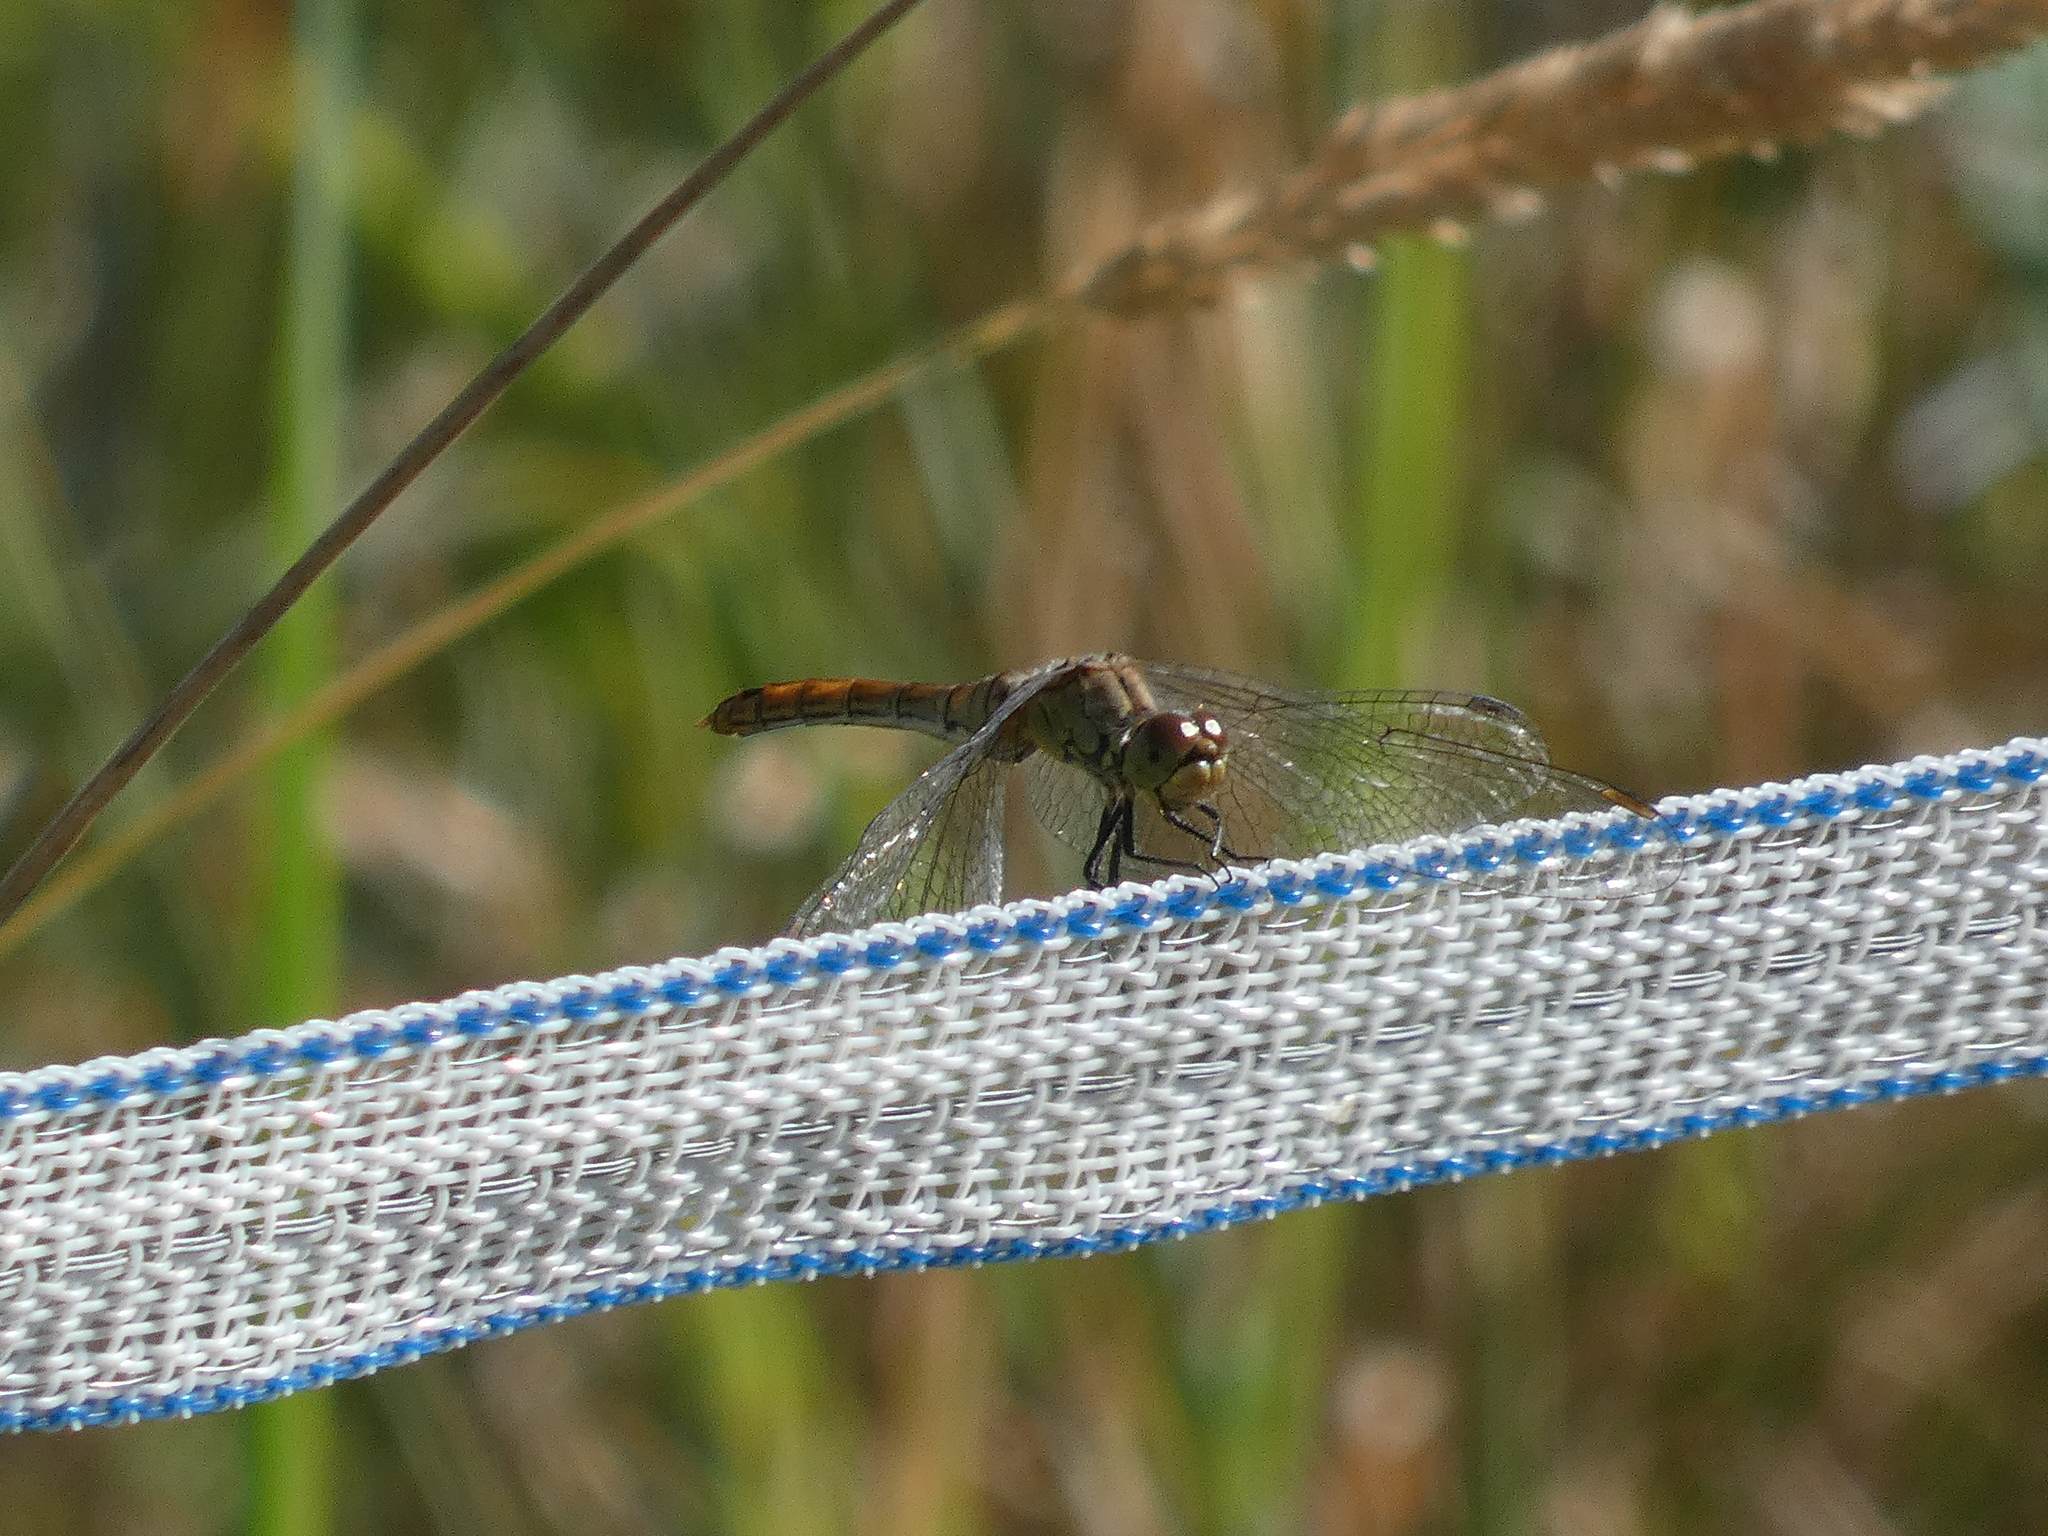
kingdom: Animalia
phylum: Arthropoda
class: Insecta
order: Odonata
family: Libellulidae
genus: Sympetrum
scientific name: Sympetrum sanguineum
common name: Ruddy darter
